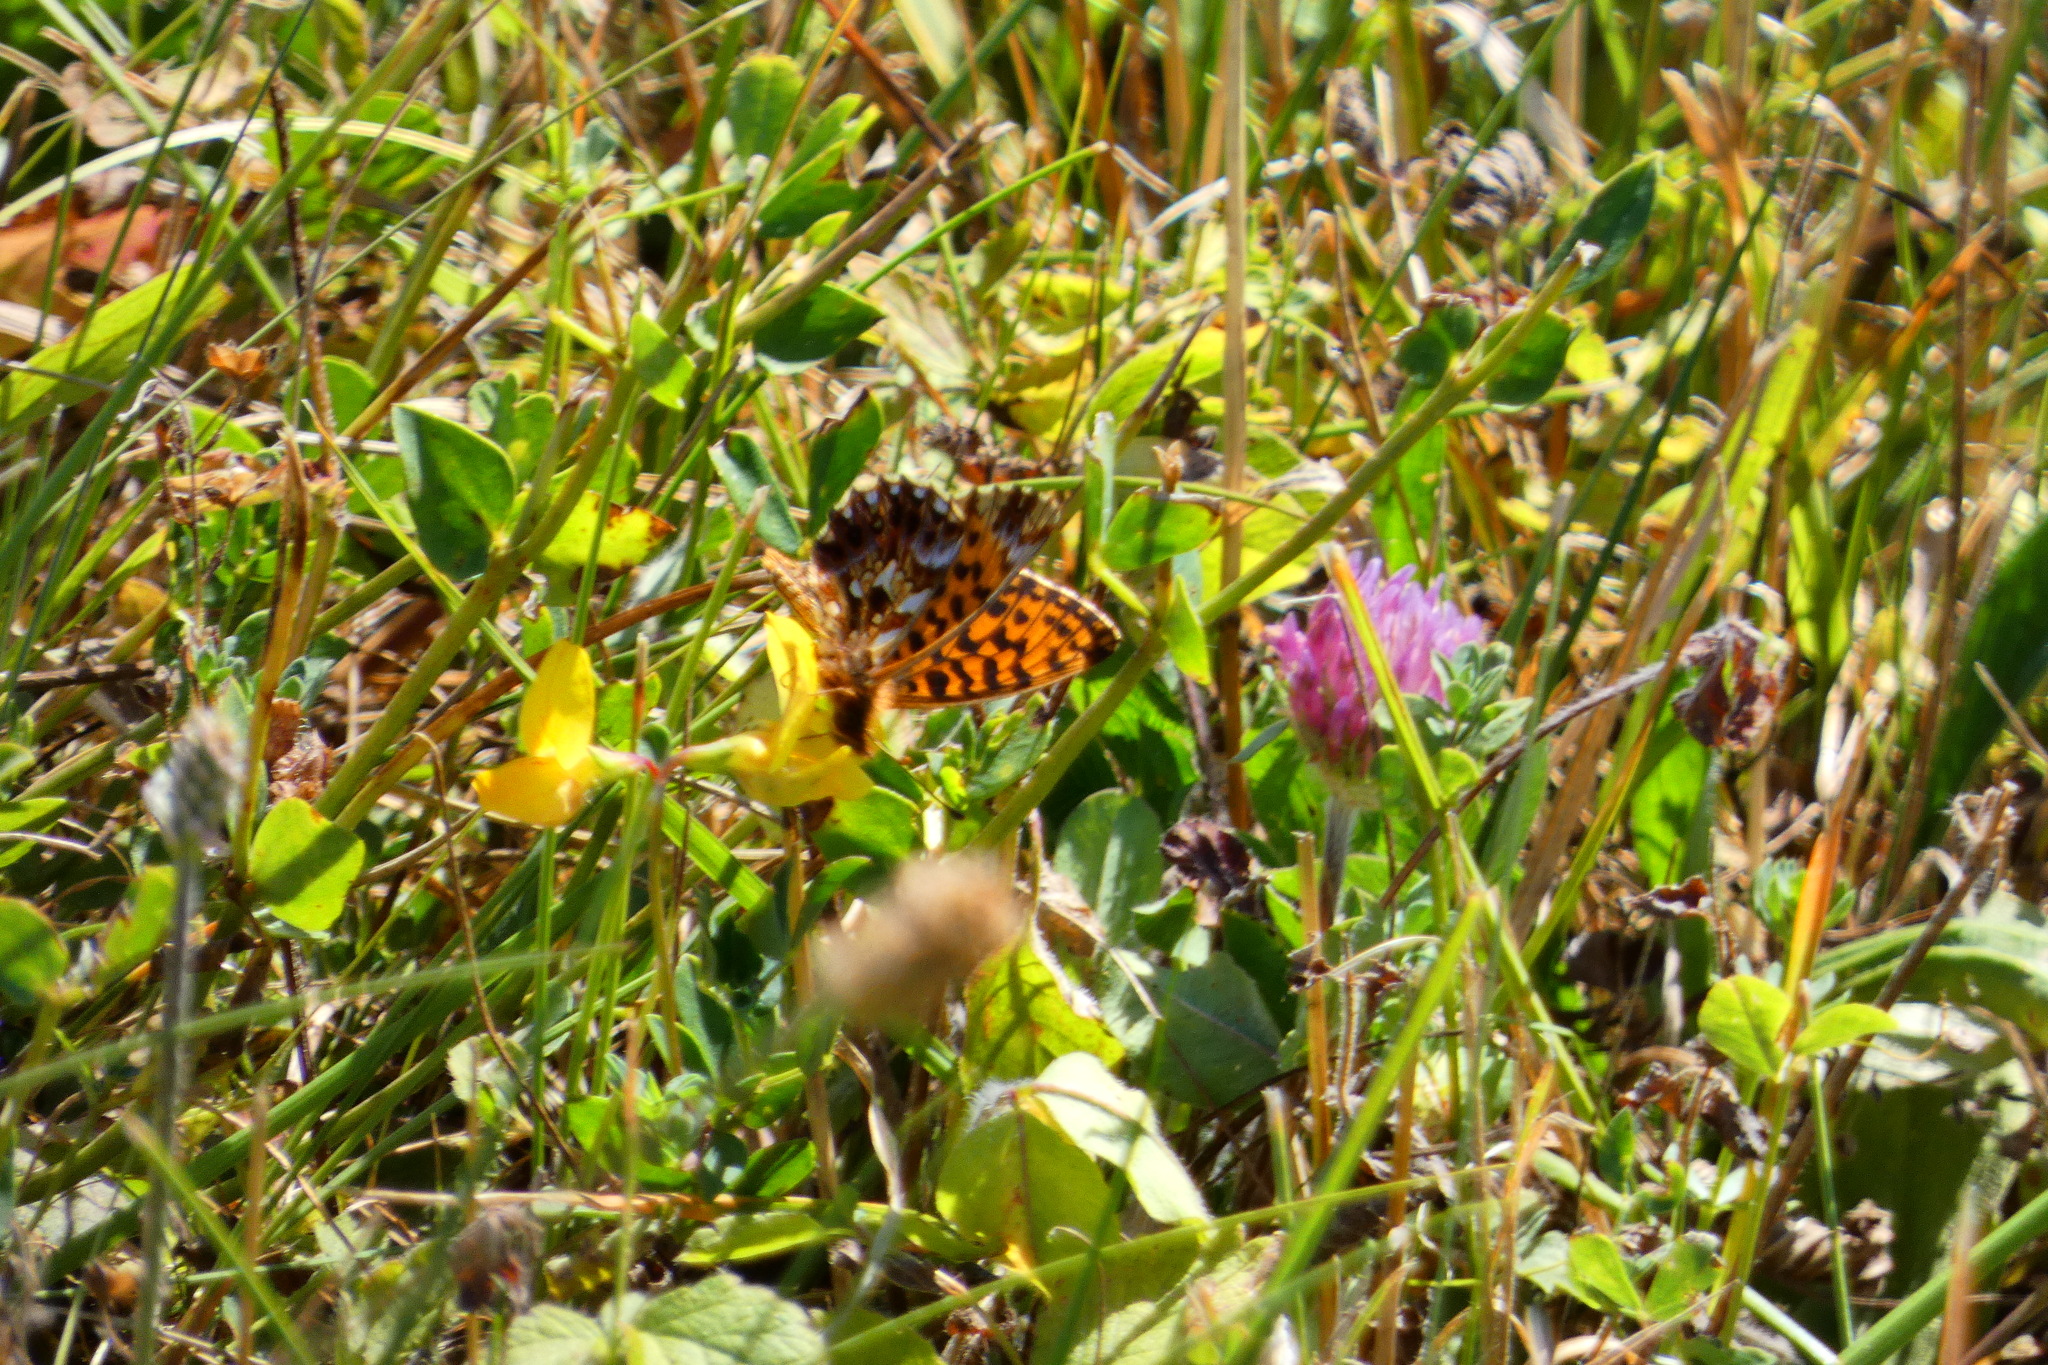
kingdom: Animalia
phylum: Arthropoda
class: Insecta
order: Lepidoptera
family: Nymphalidae
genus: Boloria
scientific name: Boloria dia
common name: Weaver's fritillary
